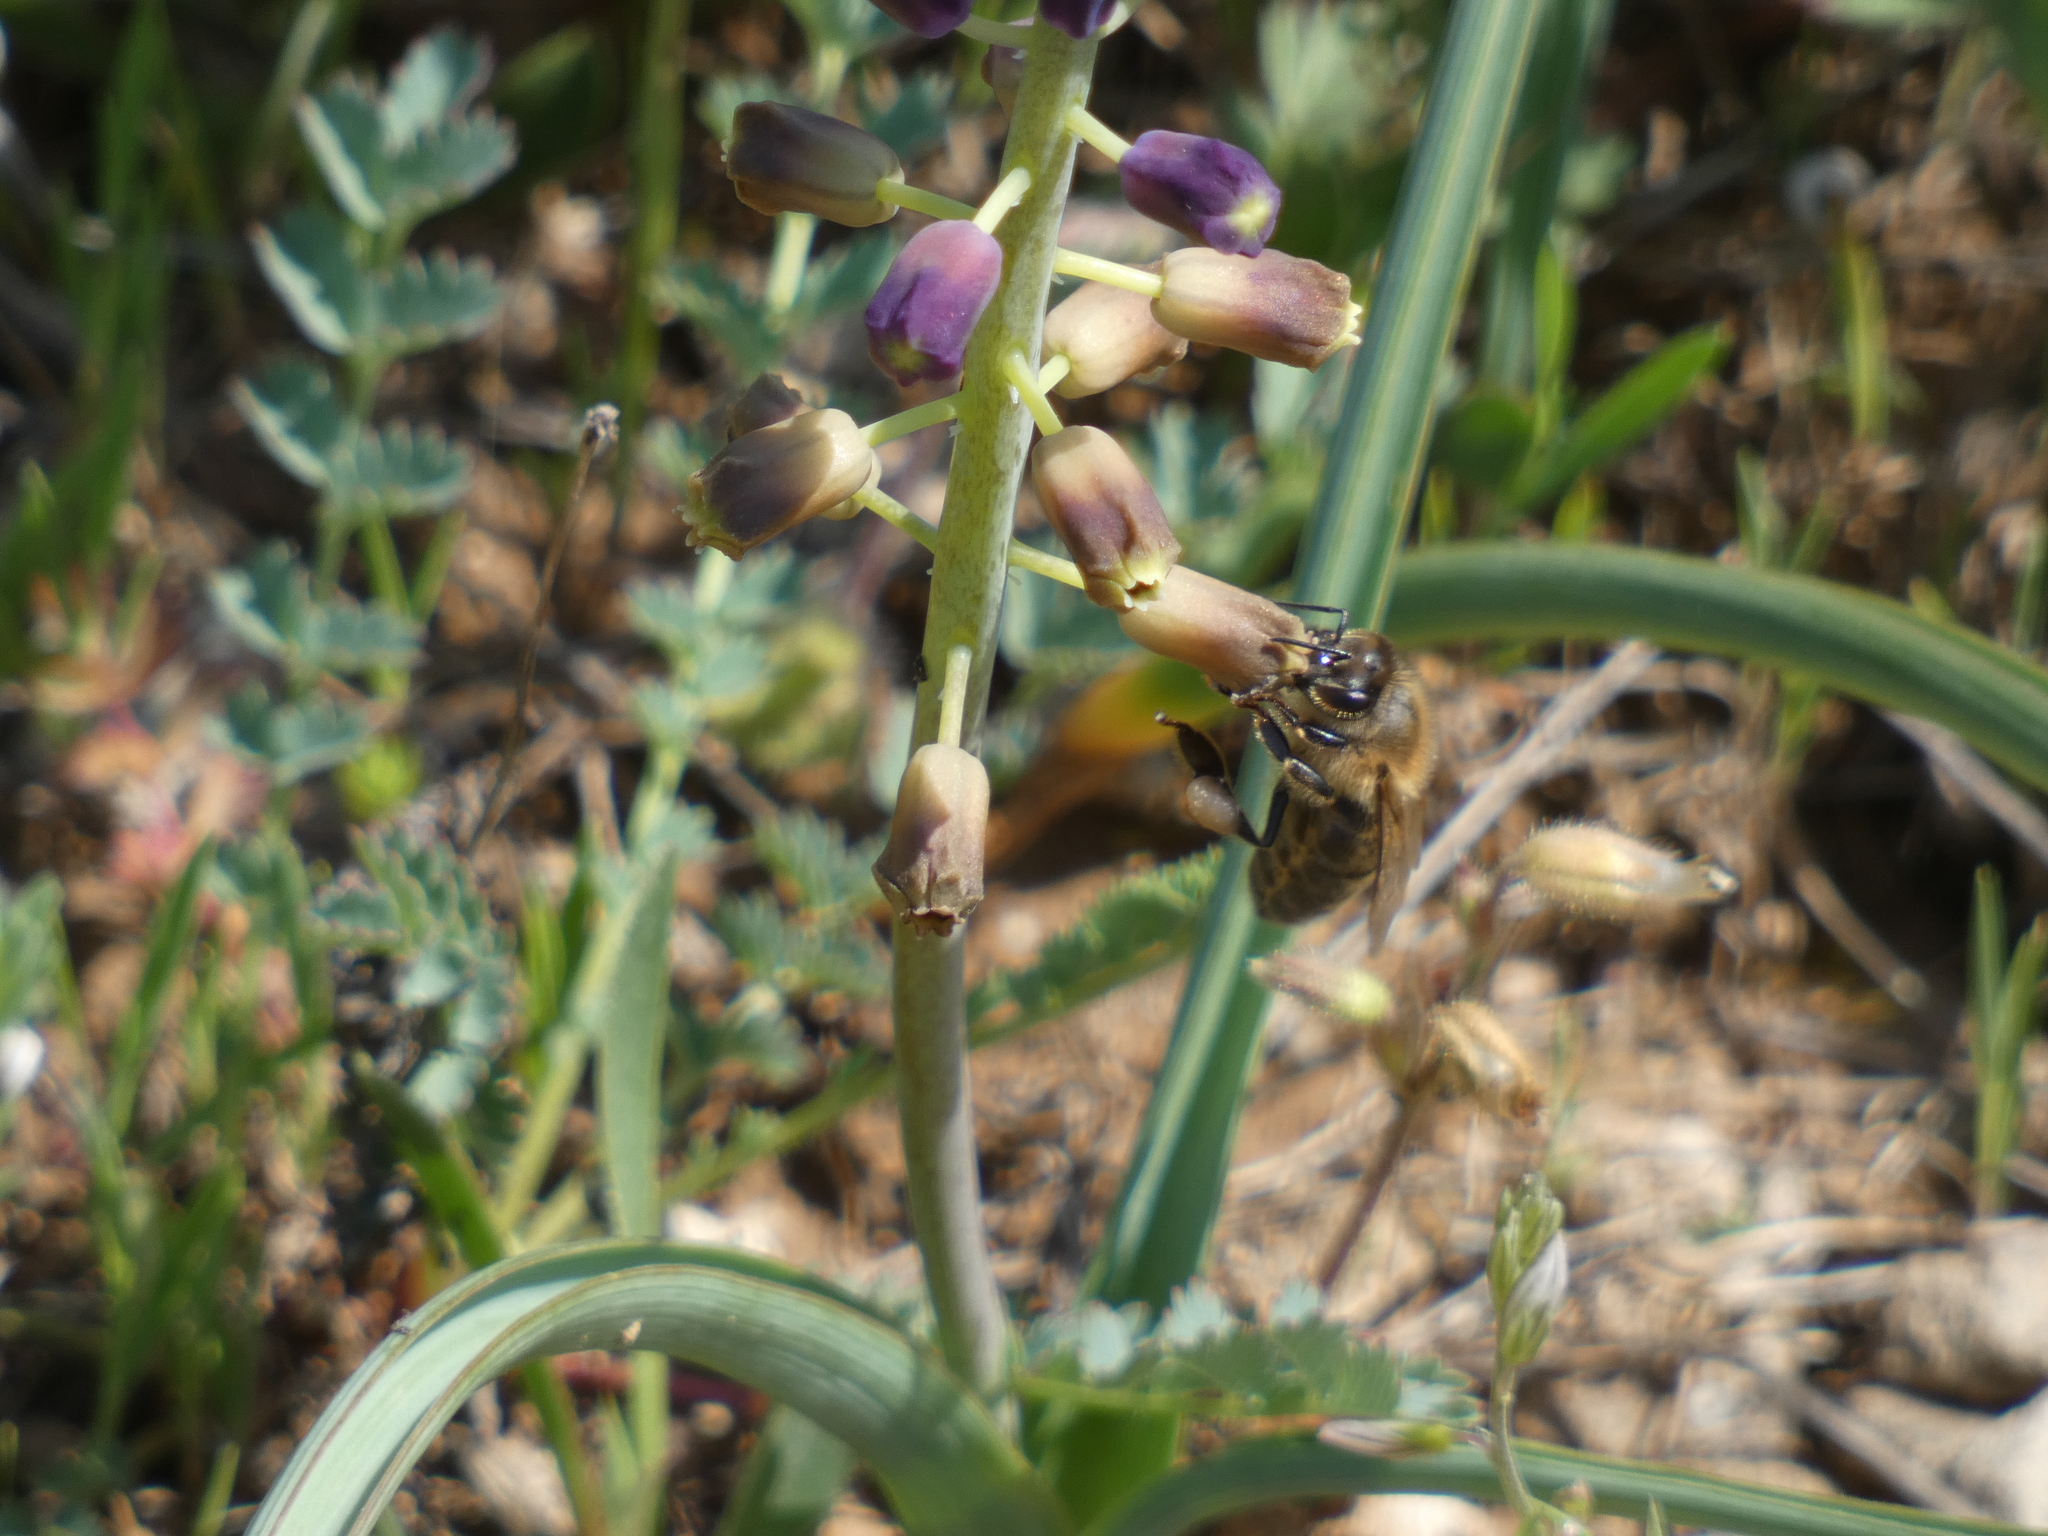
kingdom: Animalia
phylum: Arthropoda
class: Insecta
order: Hymenoptera
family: Apidae
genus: Apis
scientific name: Apis mellifera
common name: Honey bee
